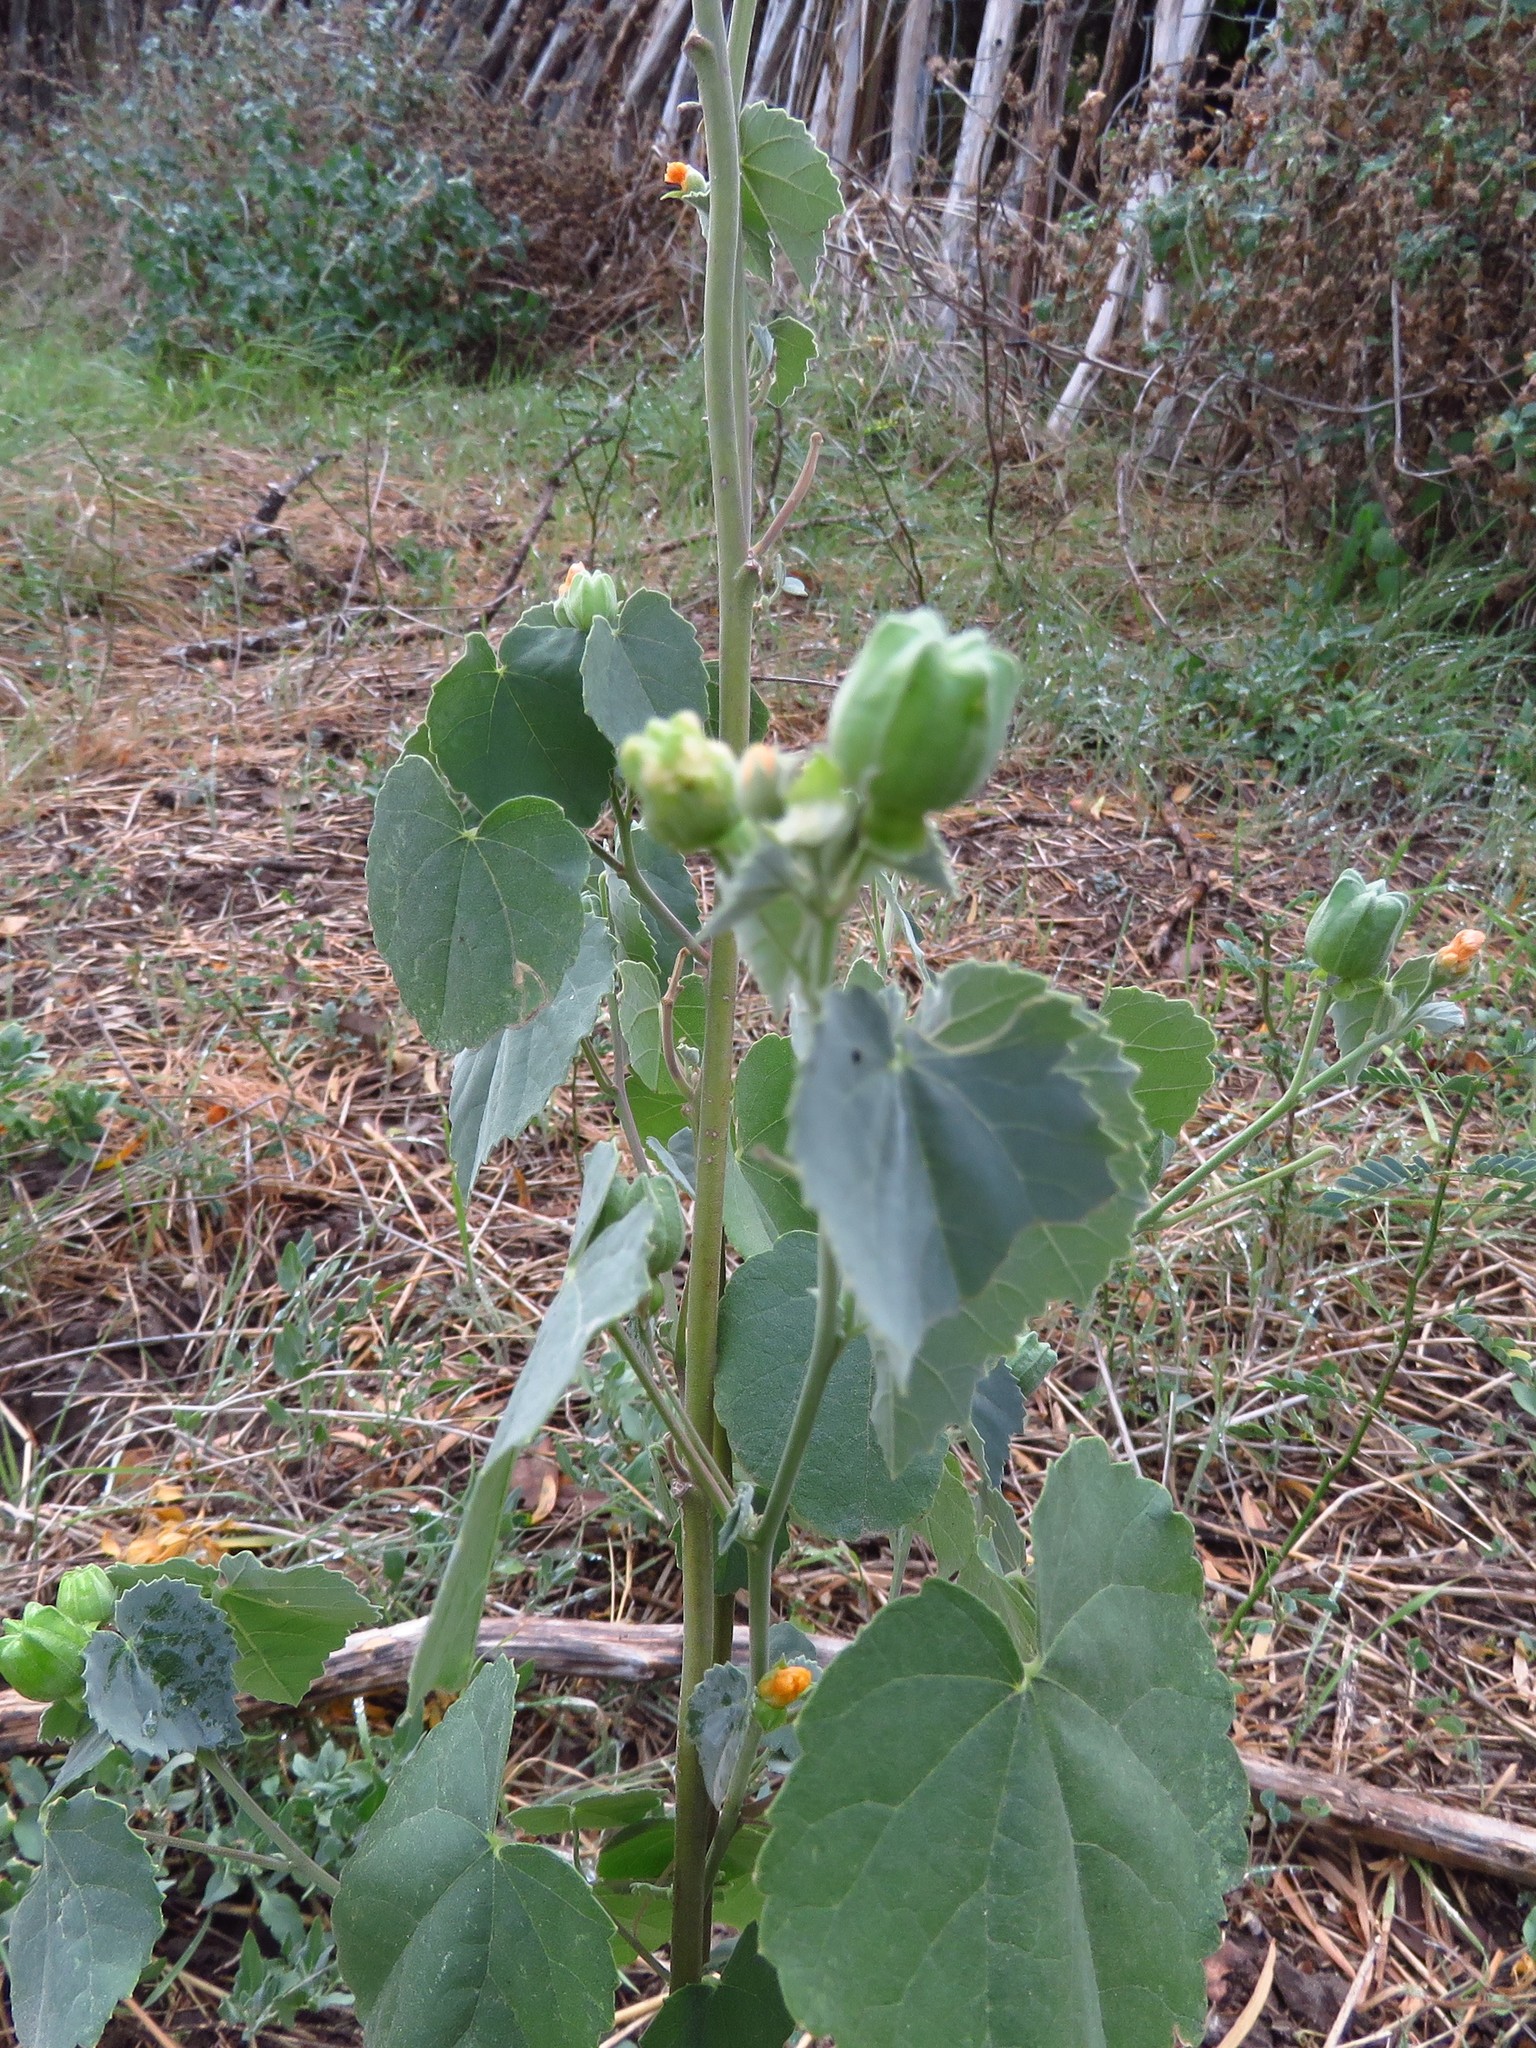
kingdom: Plantae
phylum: Tracheophyta
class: Magnoliopsida
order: Malvales
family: Malvaceae
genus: Abutilon
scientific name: Abutilon fruticosum
